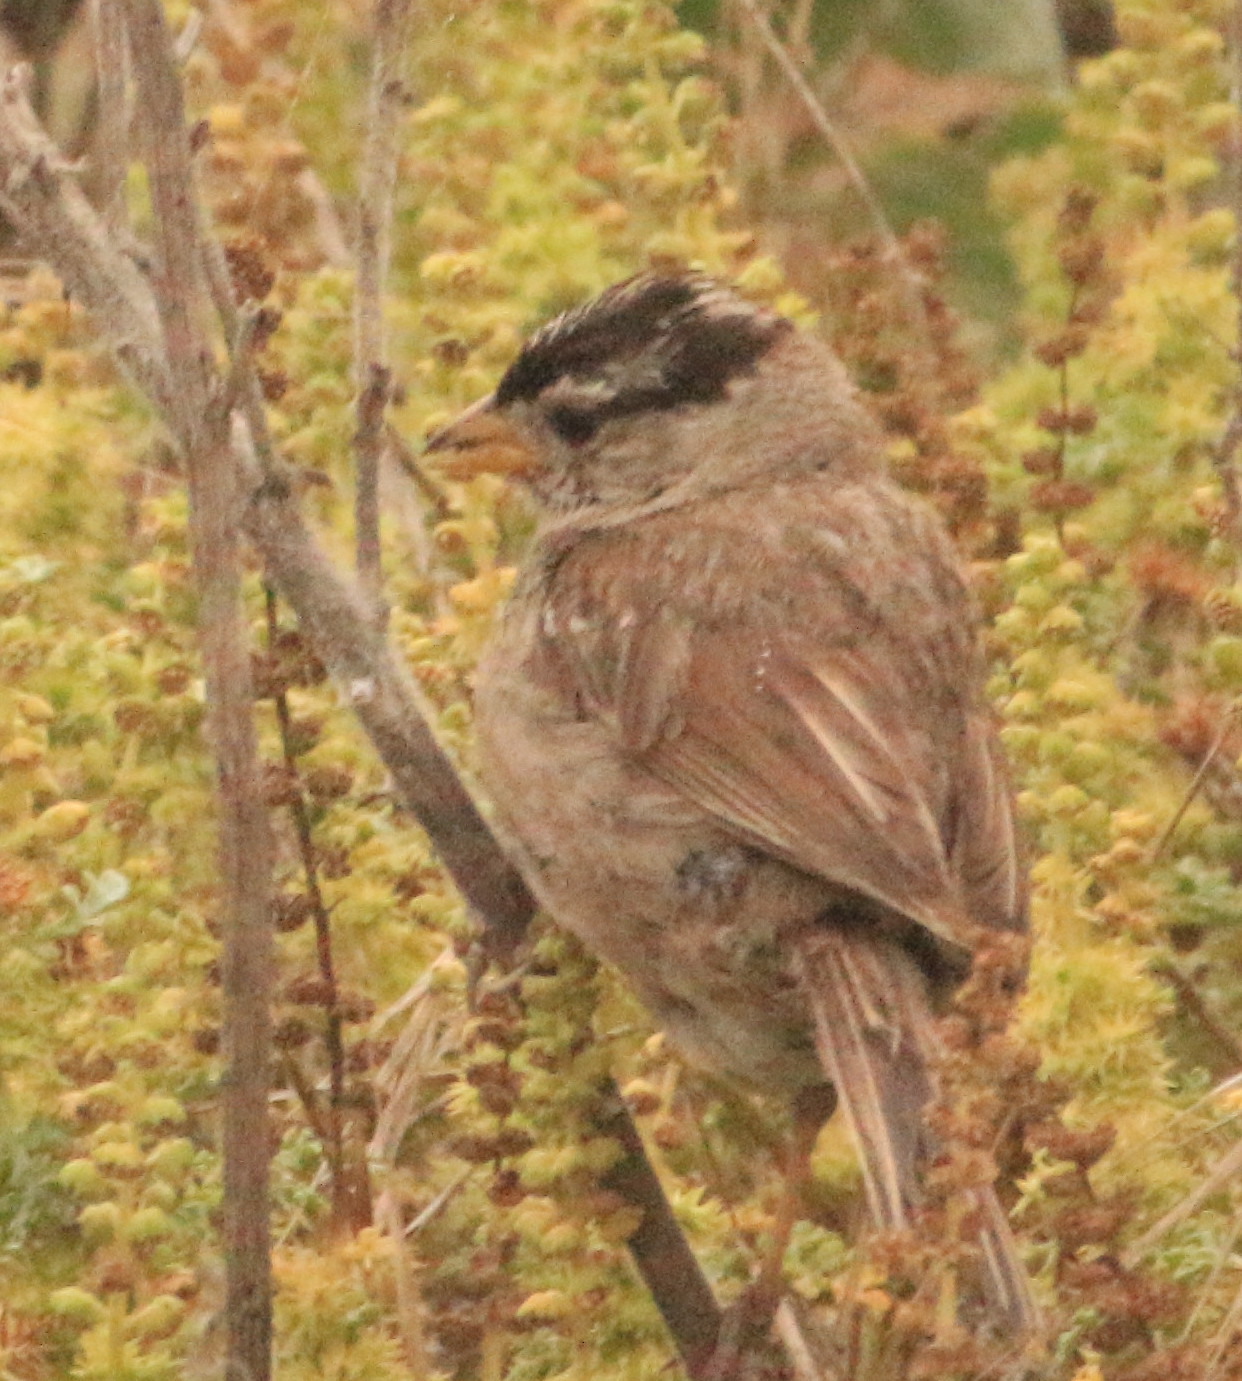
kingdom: Animalia
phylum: Chordata
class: Aves
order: Passeriformes
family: Passerellidae
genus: Zonotrichia
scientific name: Zonotrichia leucophrys
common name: White-crowned sparrow
